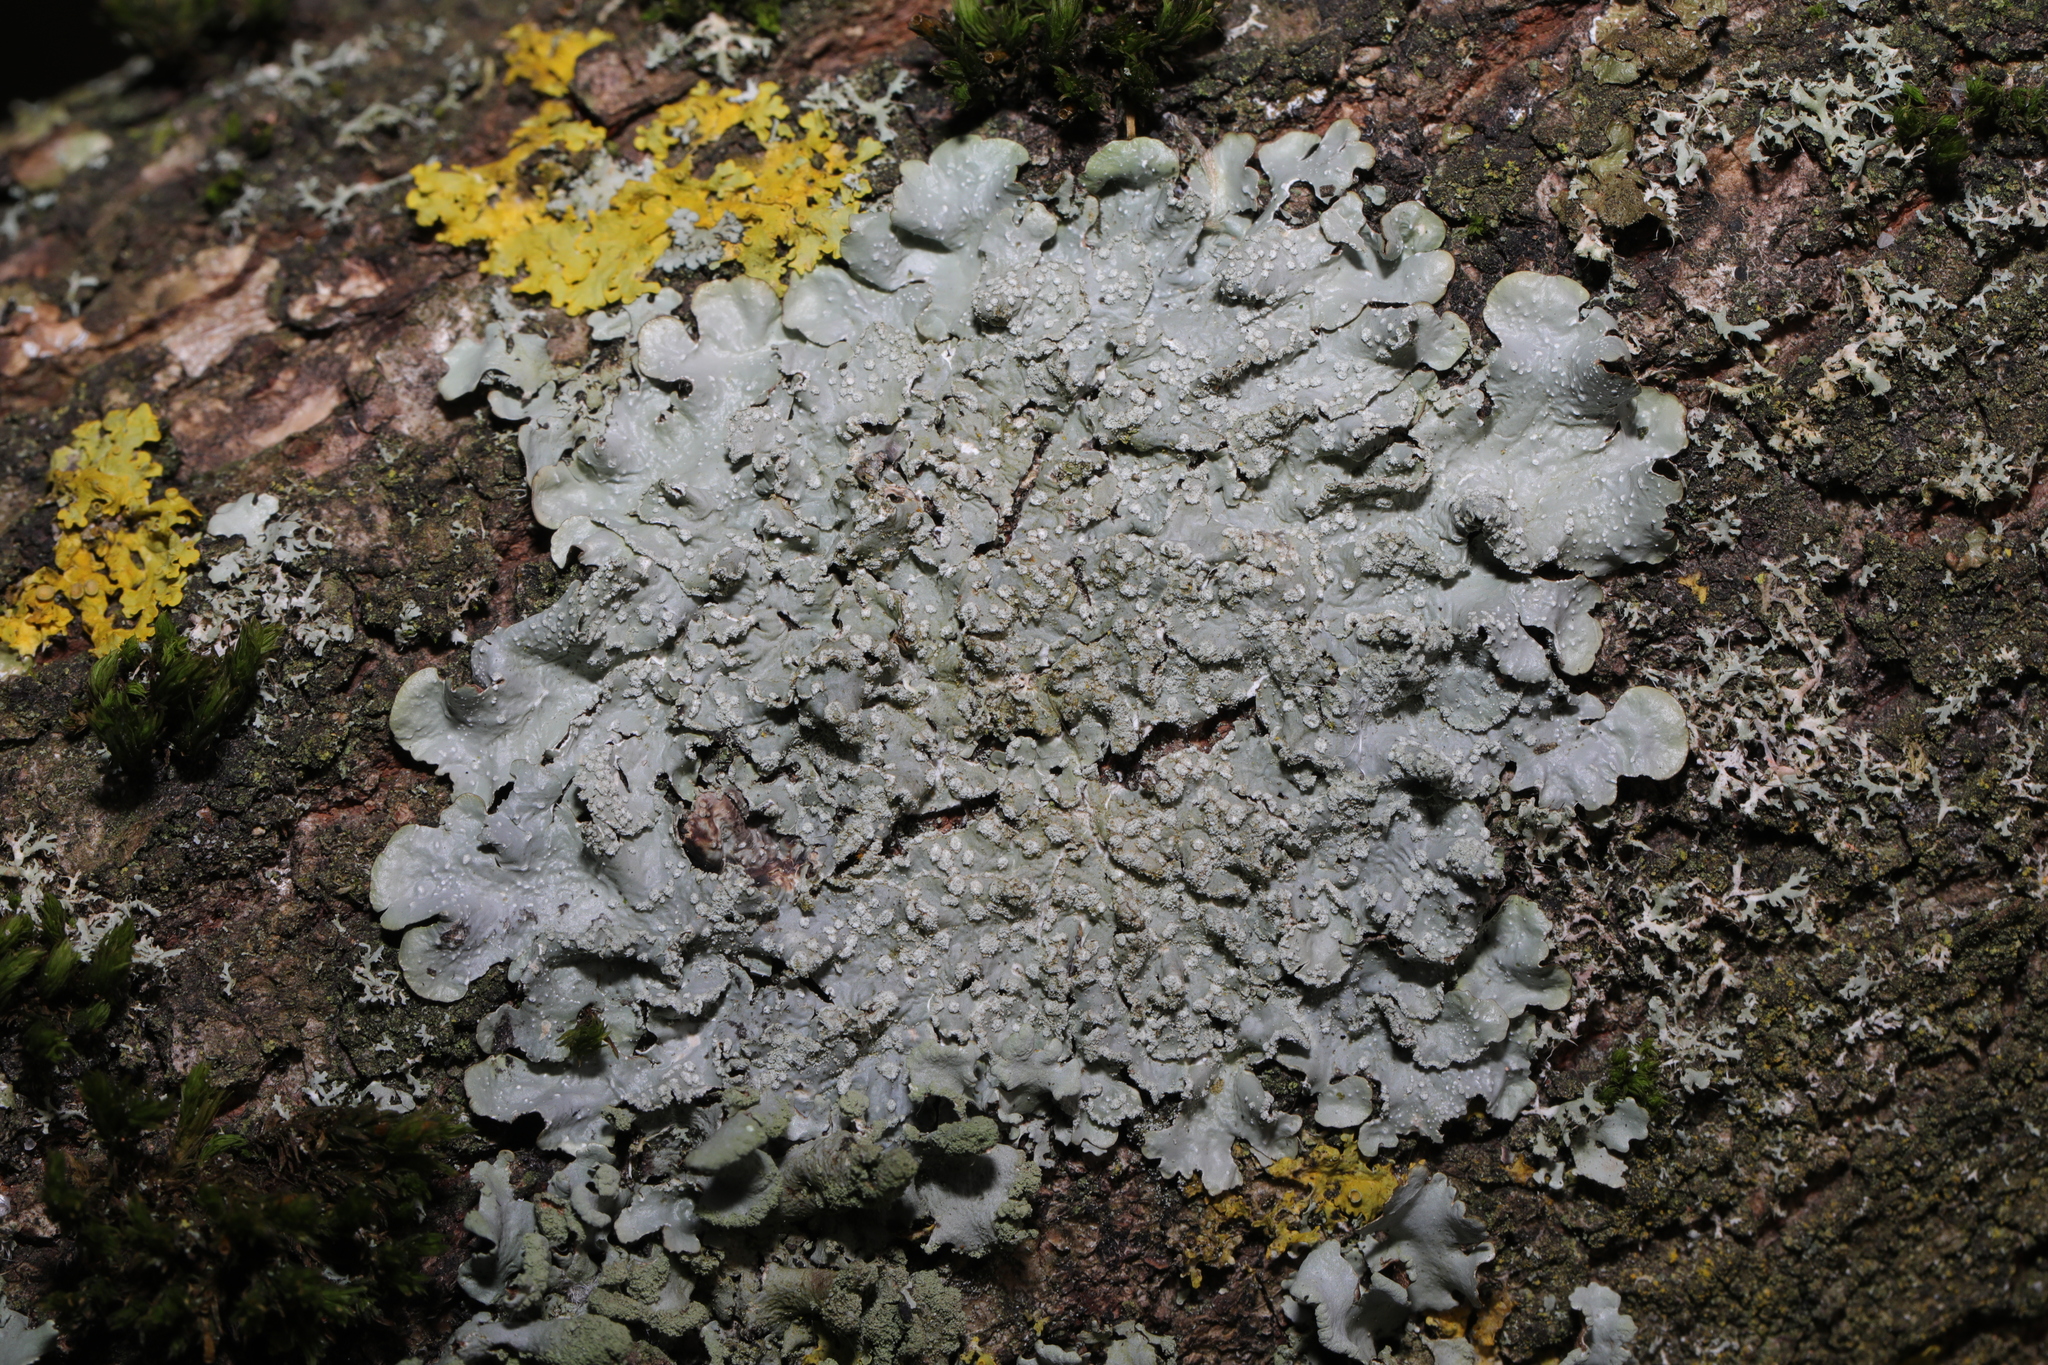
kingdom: Fungi
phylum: Ascomycota
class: Lecanoromycetes
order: Lecanorales
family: Parmeliaceae
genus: Punctelia
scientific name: Punctelia subrudecta
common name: Powdered speckled shield lichen
